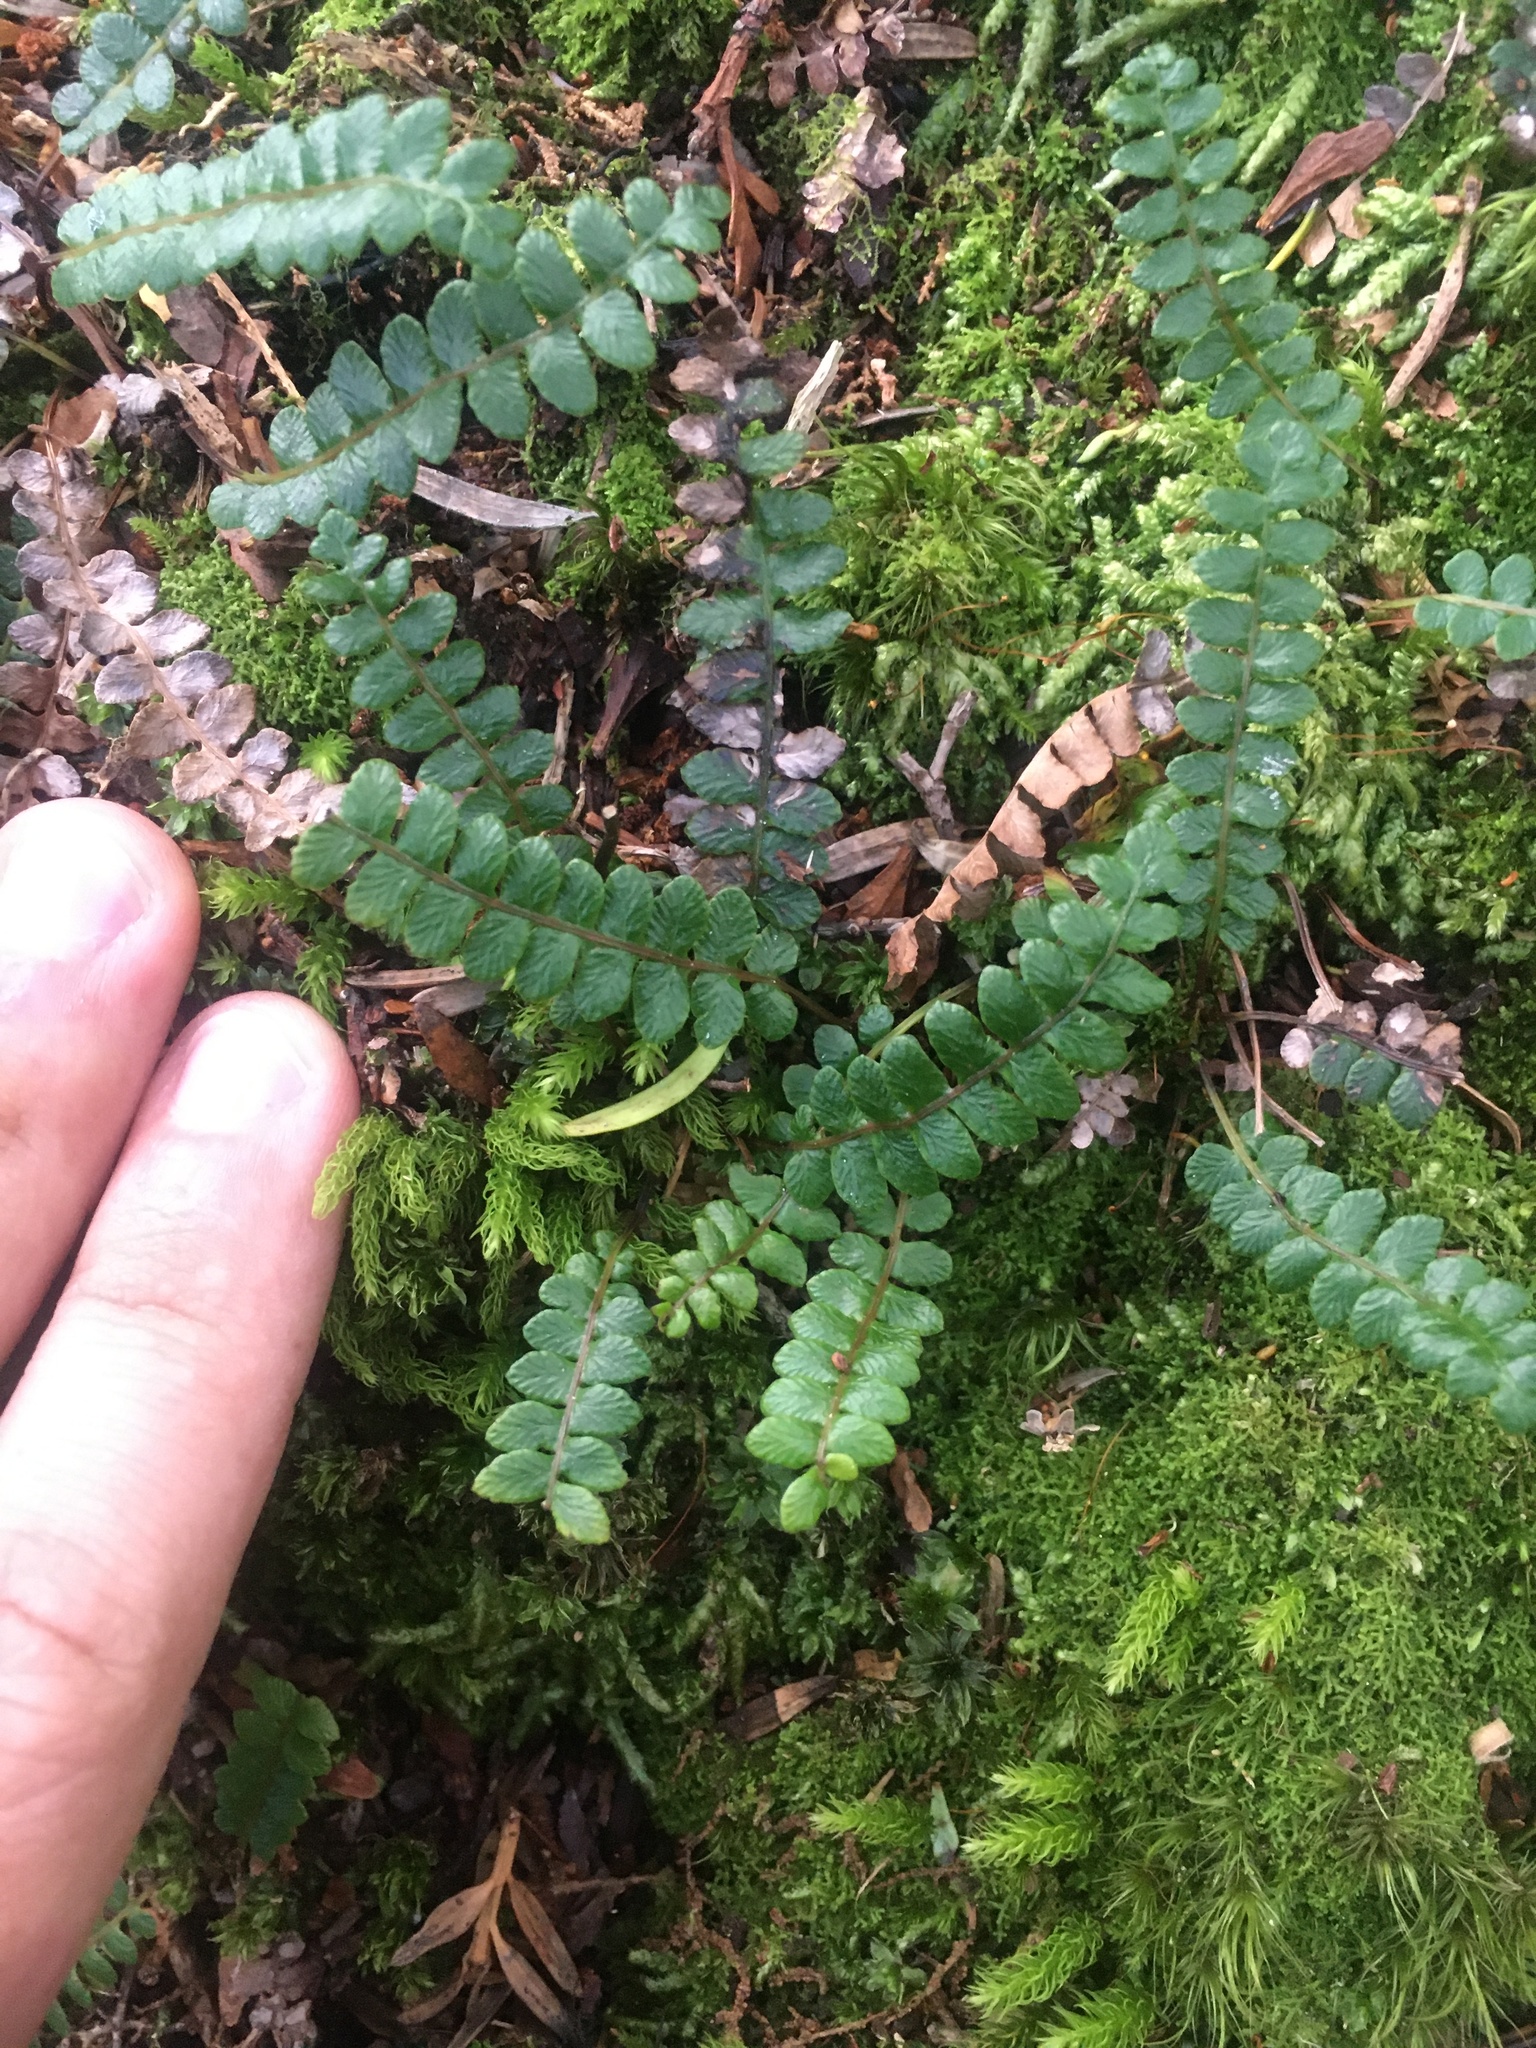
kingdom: Plantae
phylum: Tracheophyta
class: Polypodiopsida
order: Polypodiales
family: Blechnaceae
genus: Austroblechnum
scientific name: Austroblechnum penna-marina
